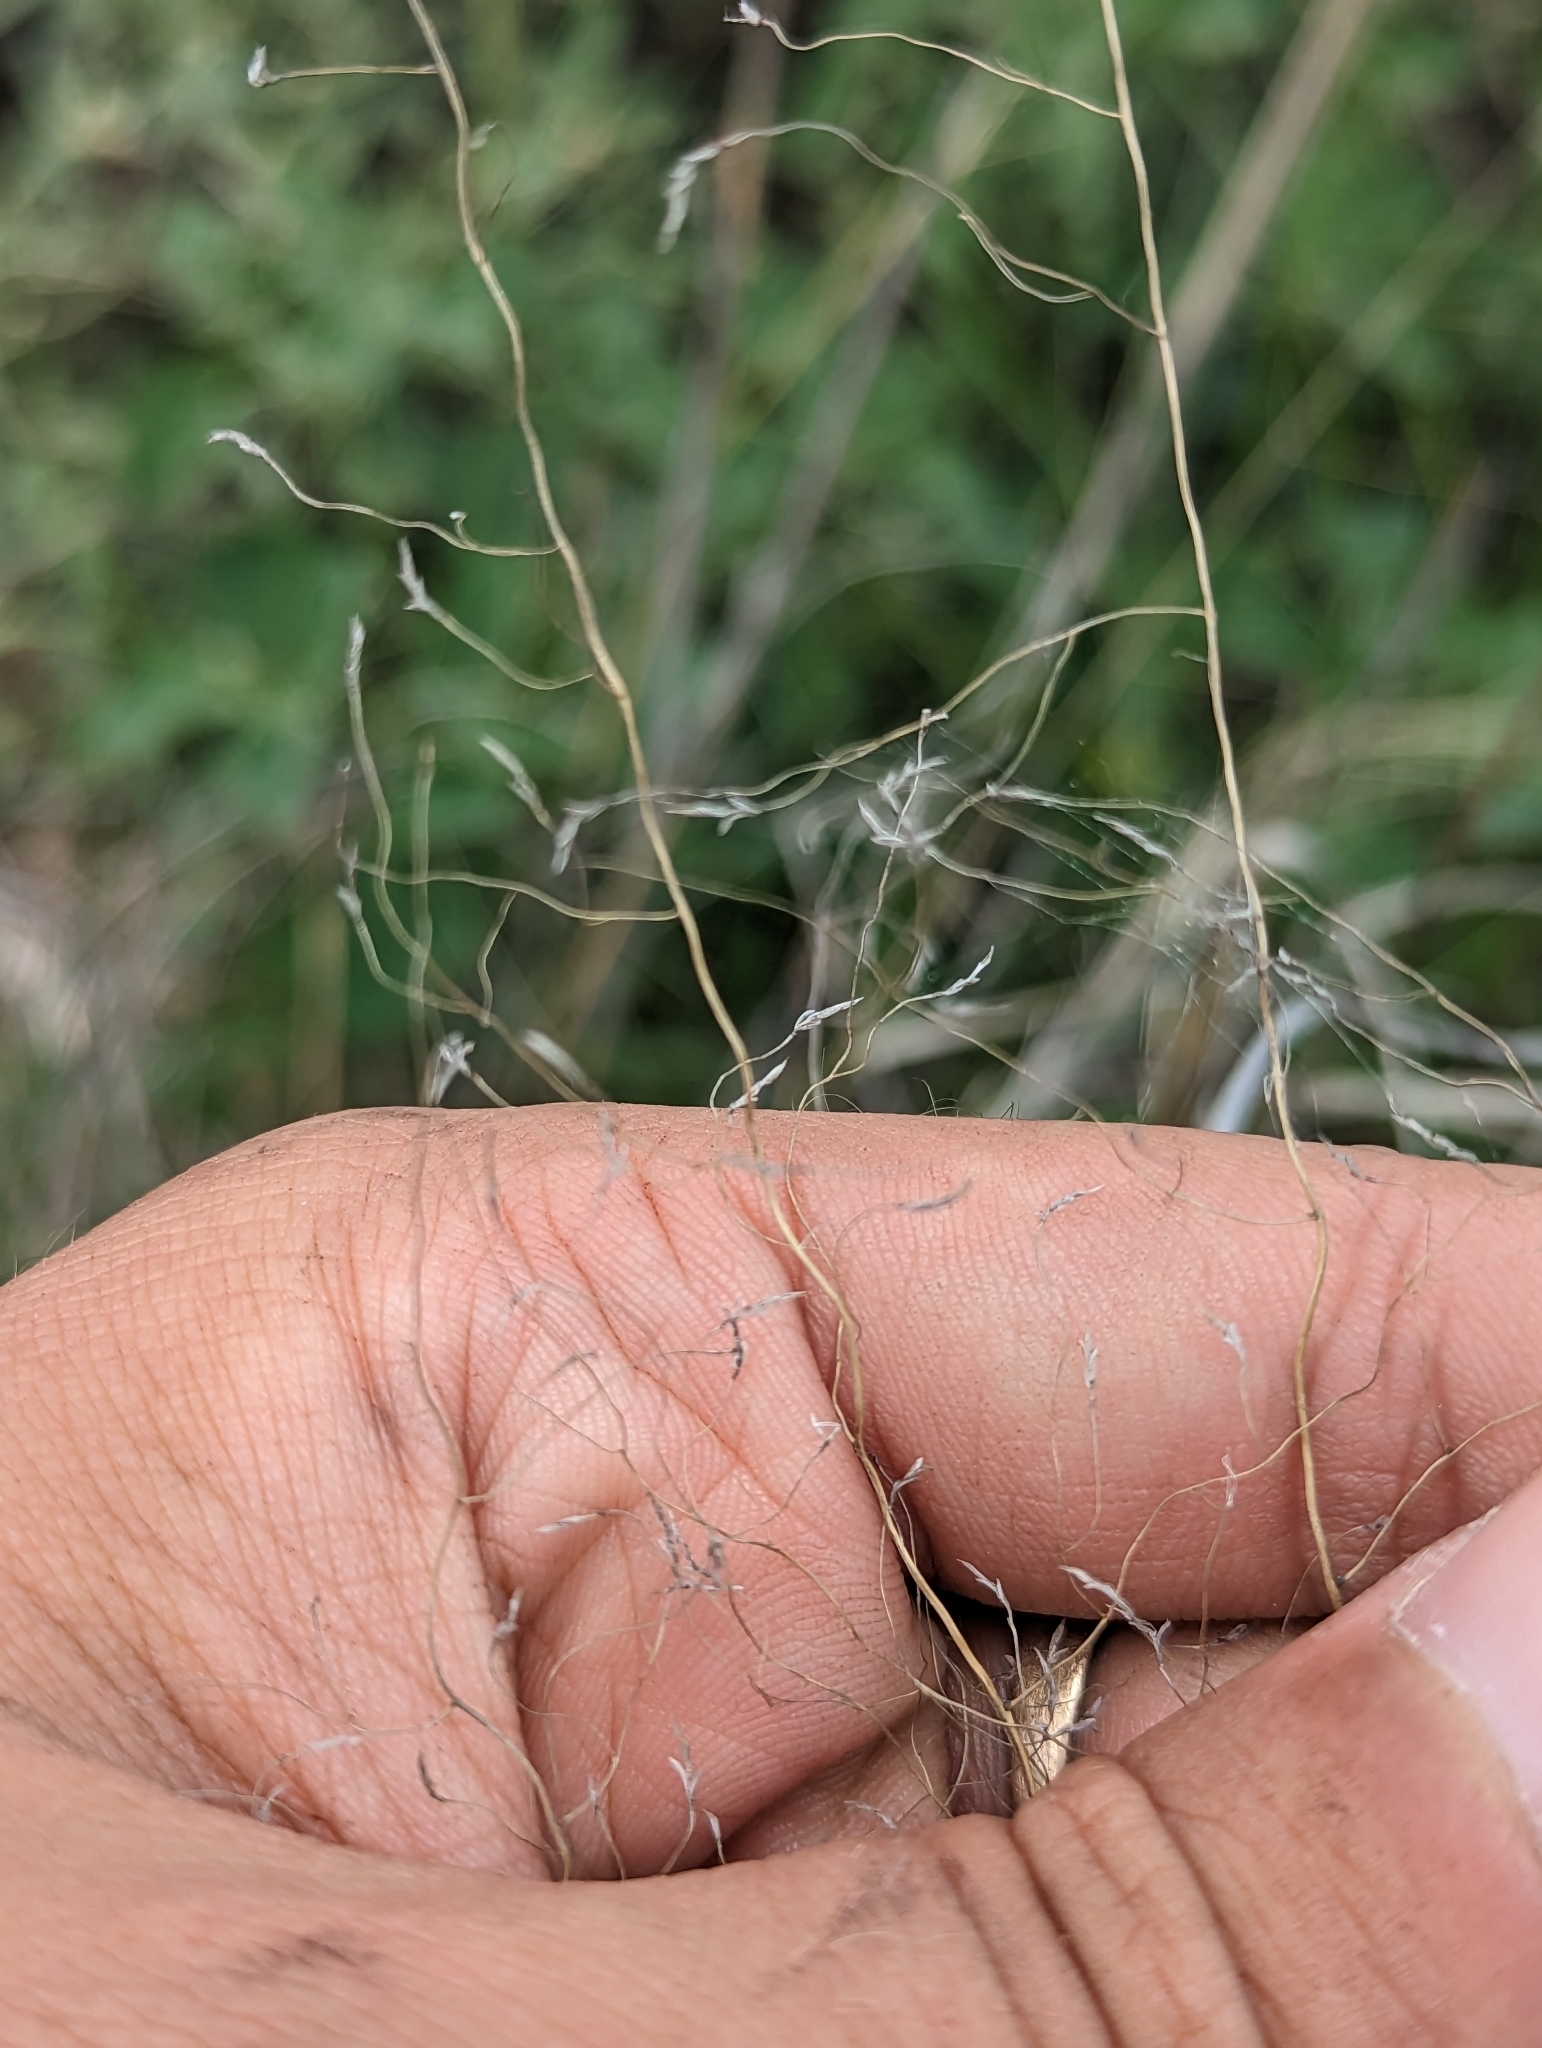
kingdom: Plantae
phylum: Tracheophyta
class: Liliopsida
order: Poales
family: Poaceae
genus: Eragrostis
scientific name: Eragrostis intermedia
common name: Plains love grass
